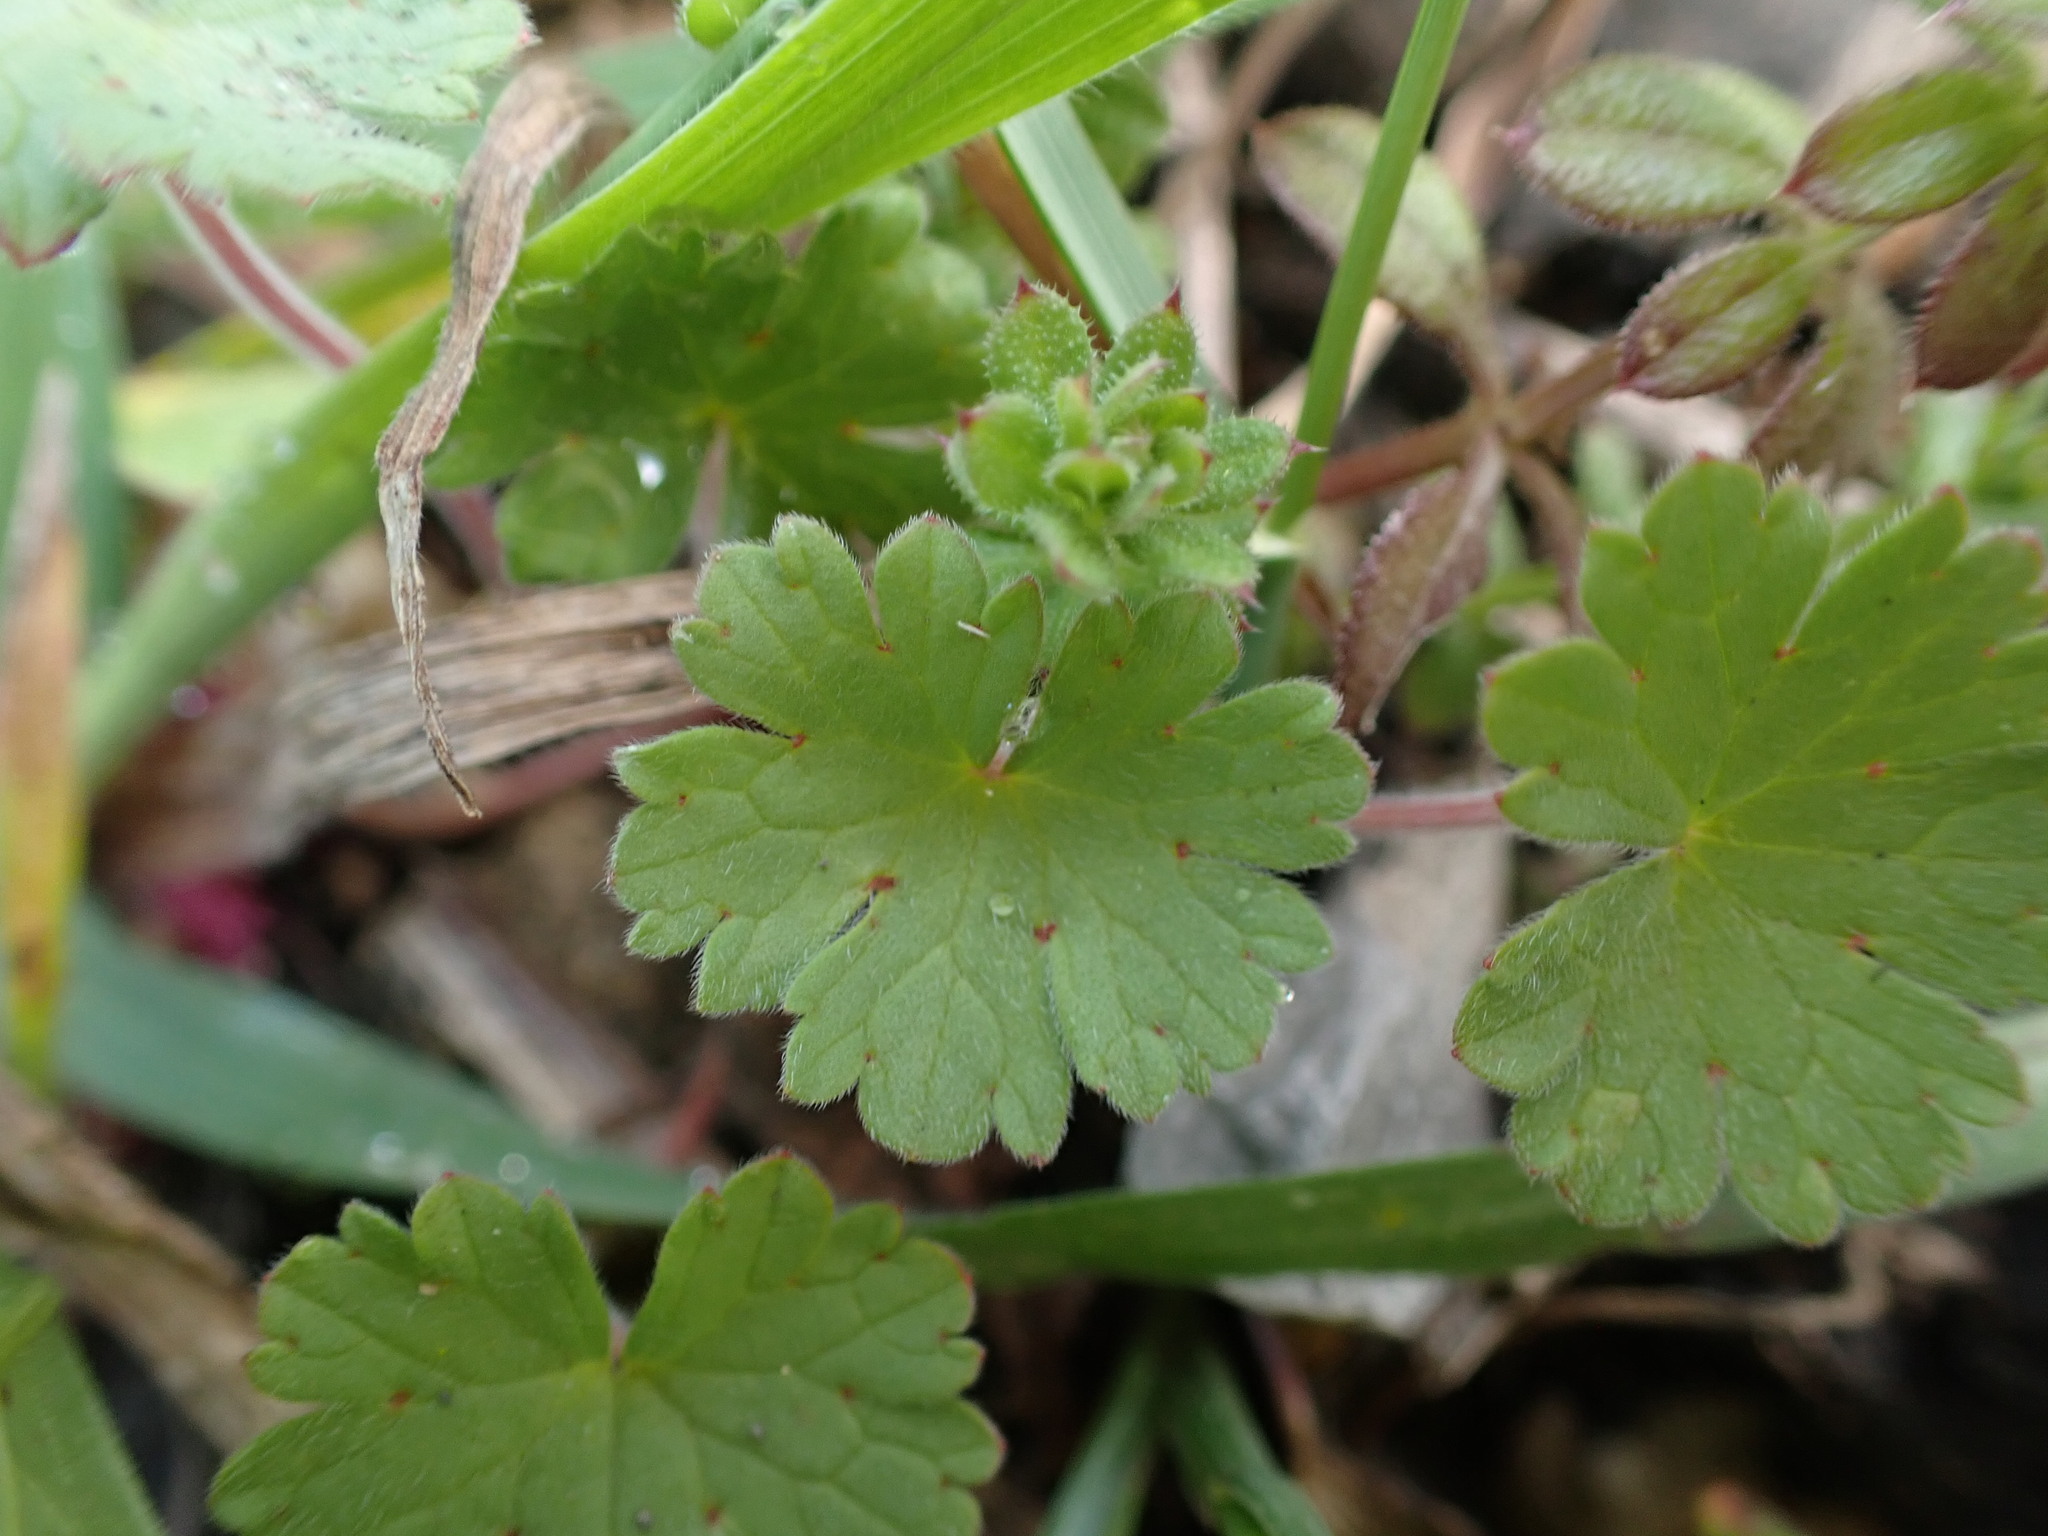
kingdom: Plantae
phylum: Tracheophyta
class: Magnoliopsida
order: Geraniales
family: Geraniaceae
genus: Geranium
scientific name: Geranium rotundifolium
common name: Round-leaved crane's-bill
